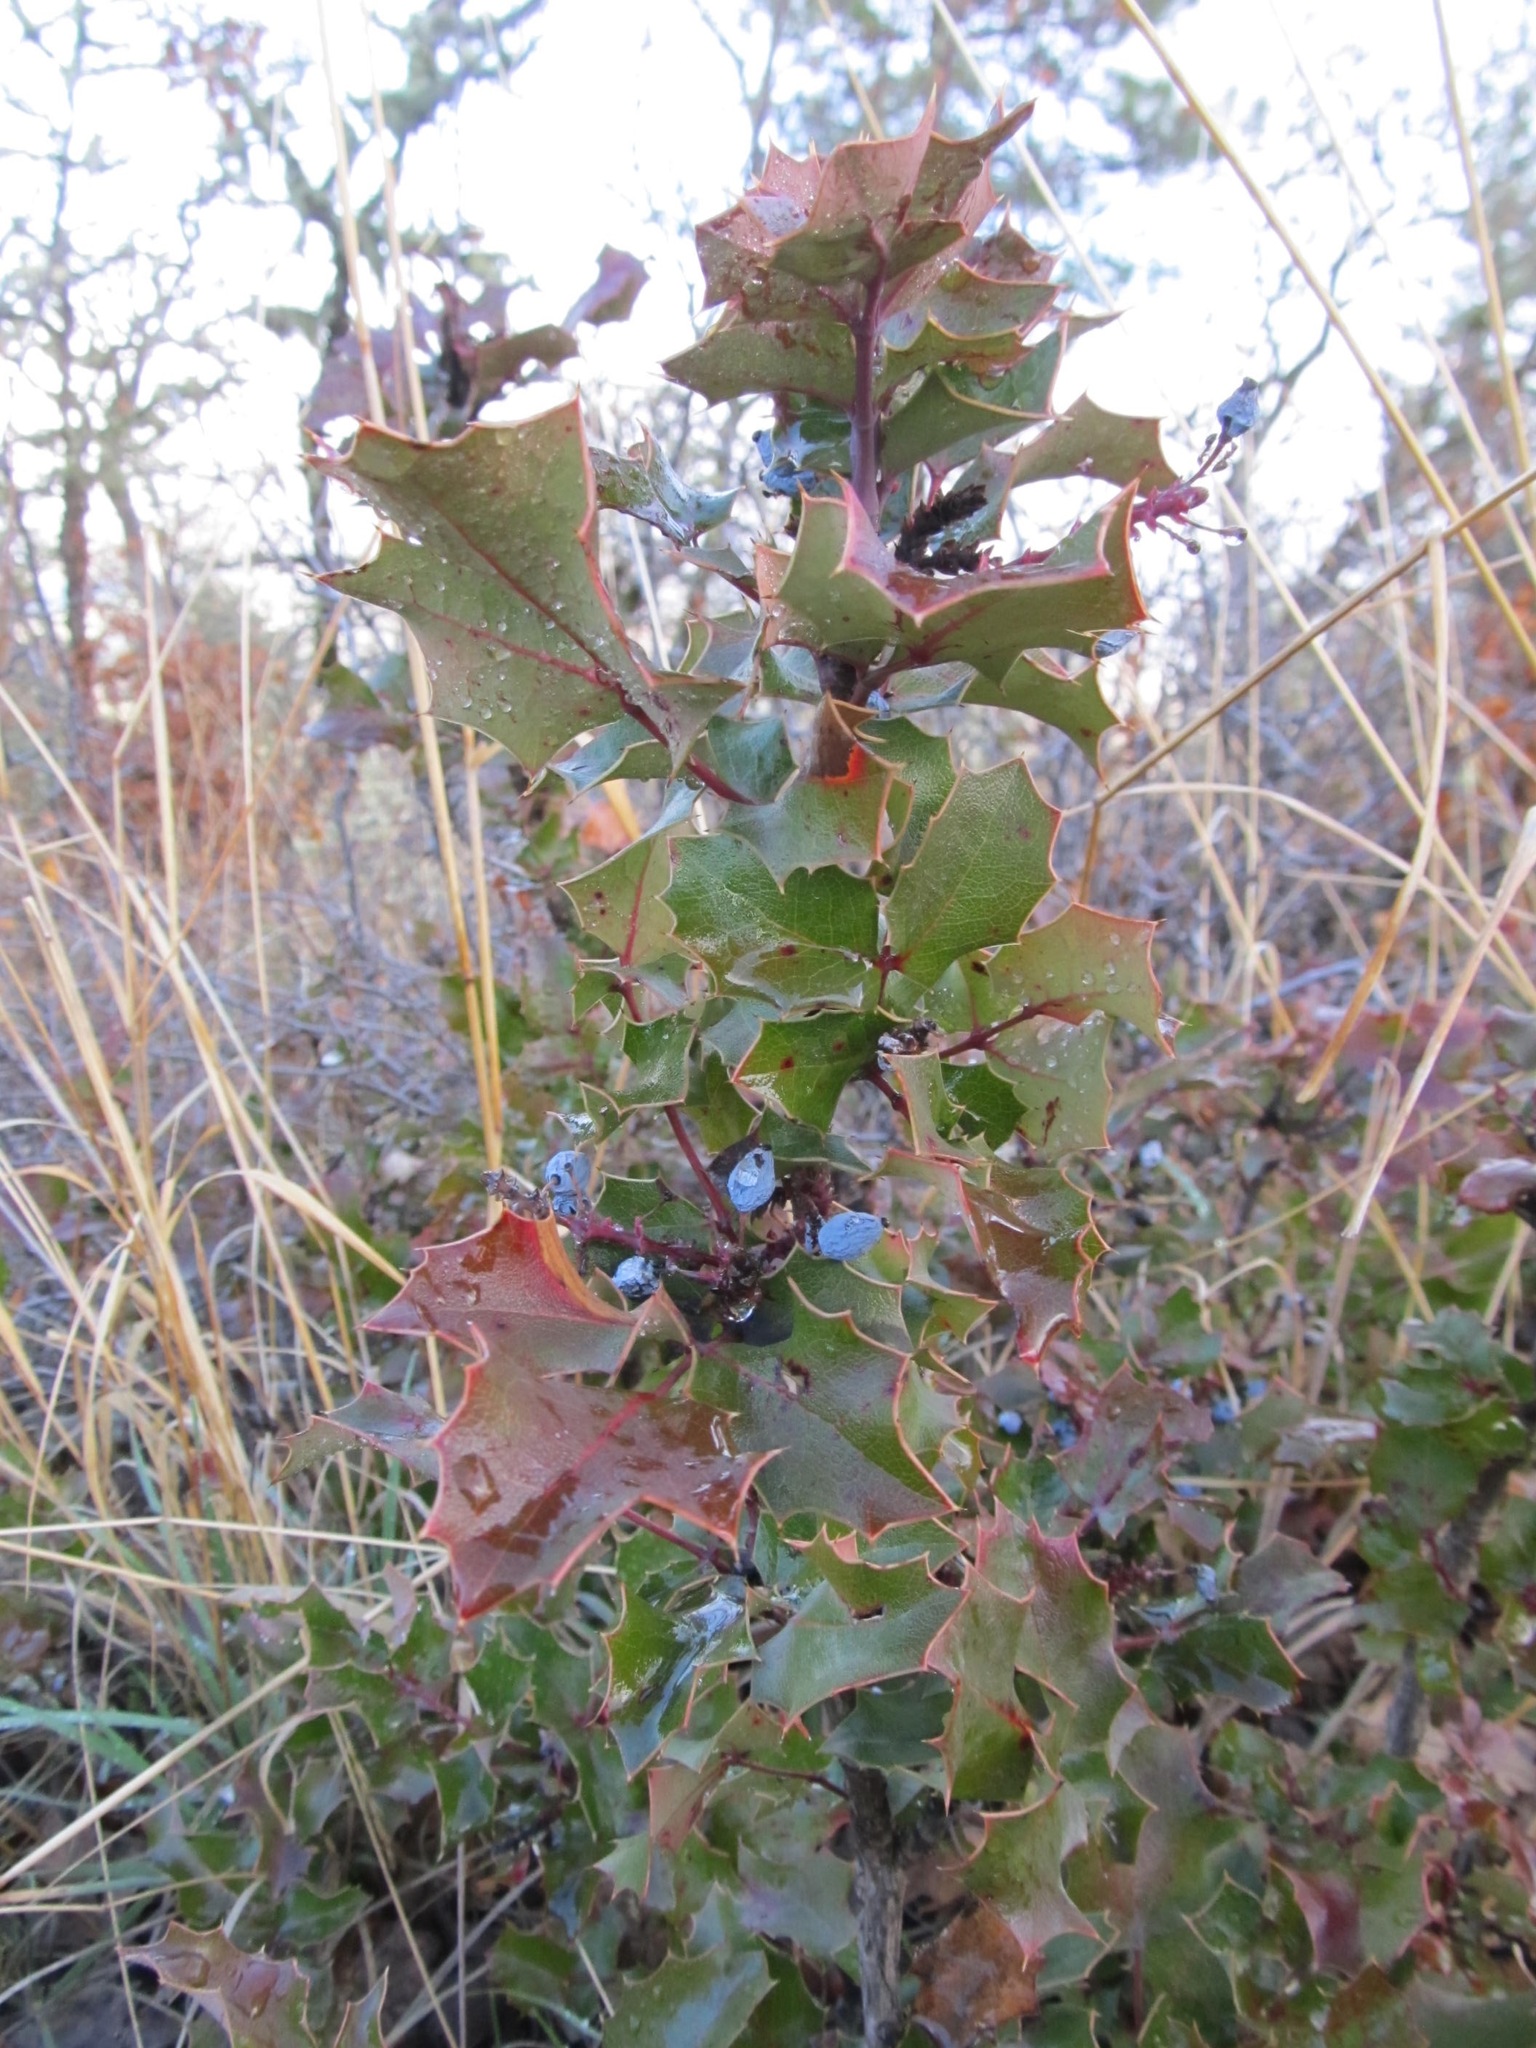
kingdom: Plantae
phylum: Tracheophyta
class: Magnoliopsida
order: Ranunculales
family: Berberidaceae
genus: Mahonia
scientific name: Mahonia aquifolium
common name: Oregon-grape
